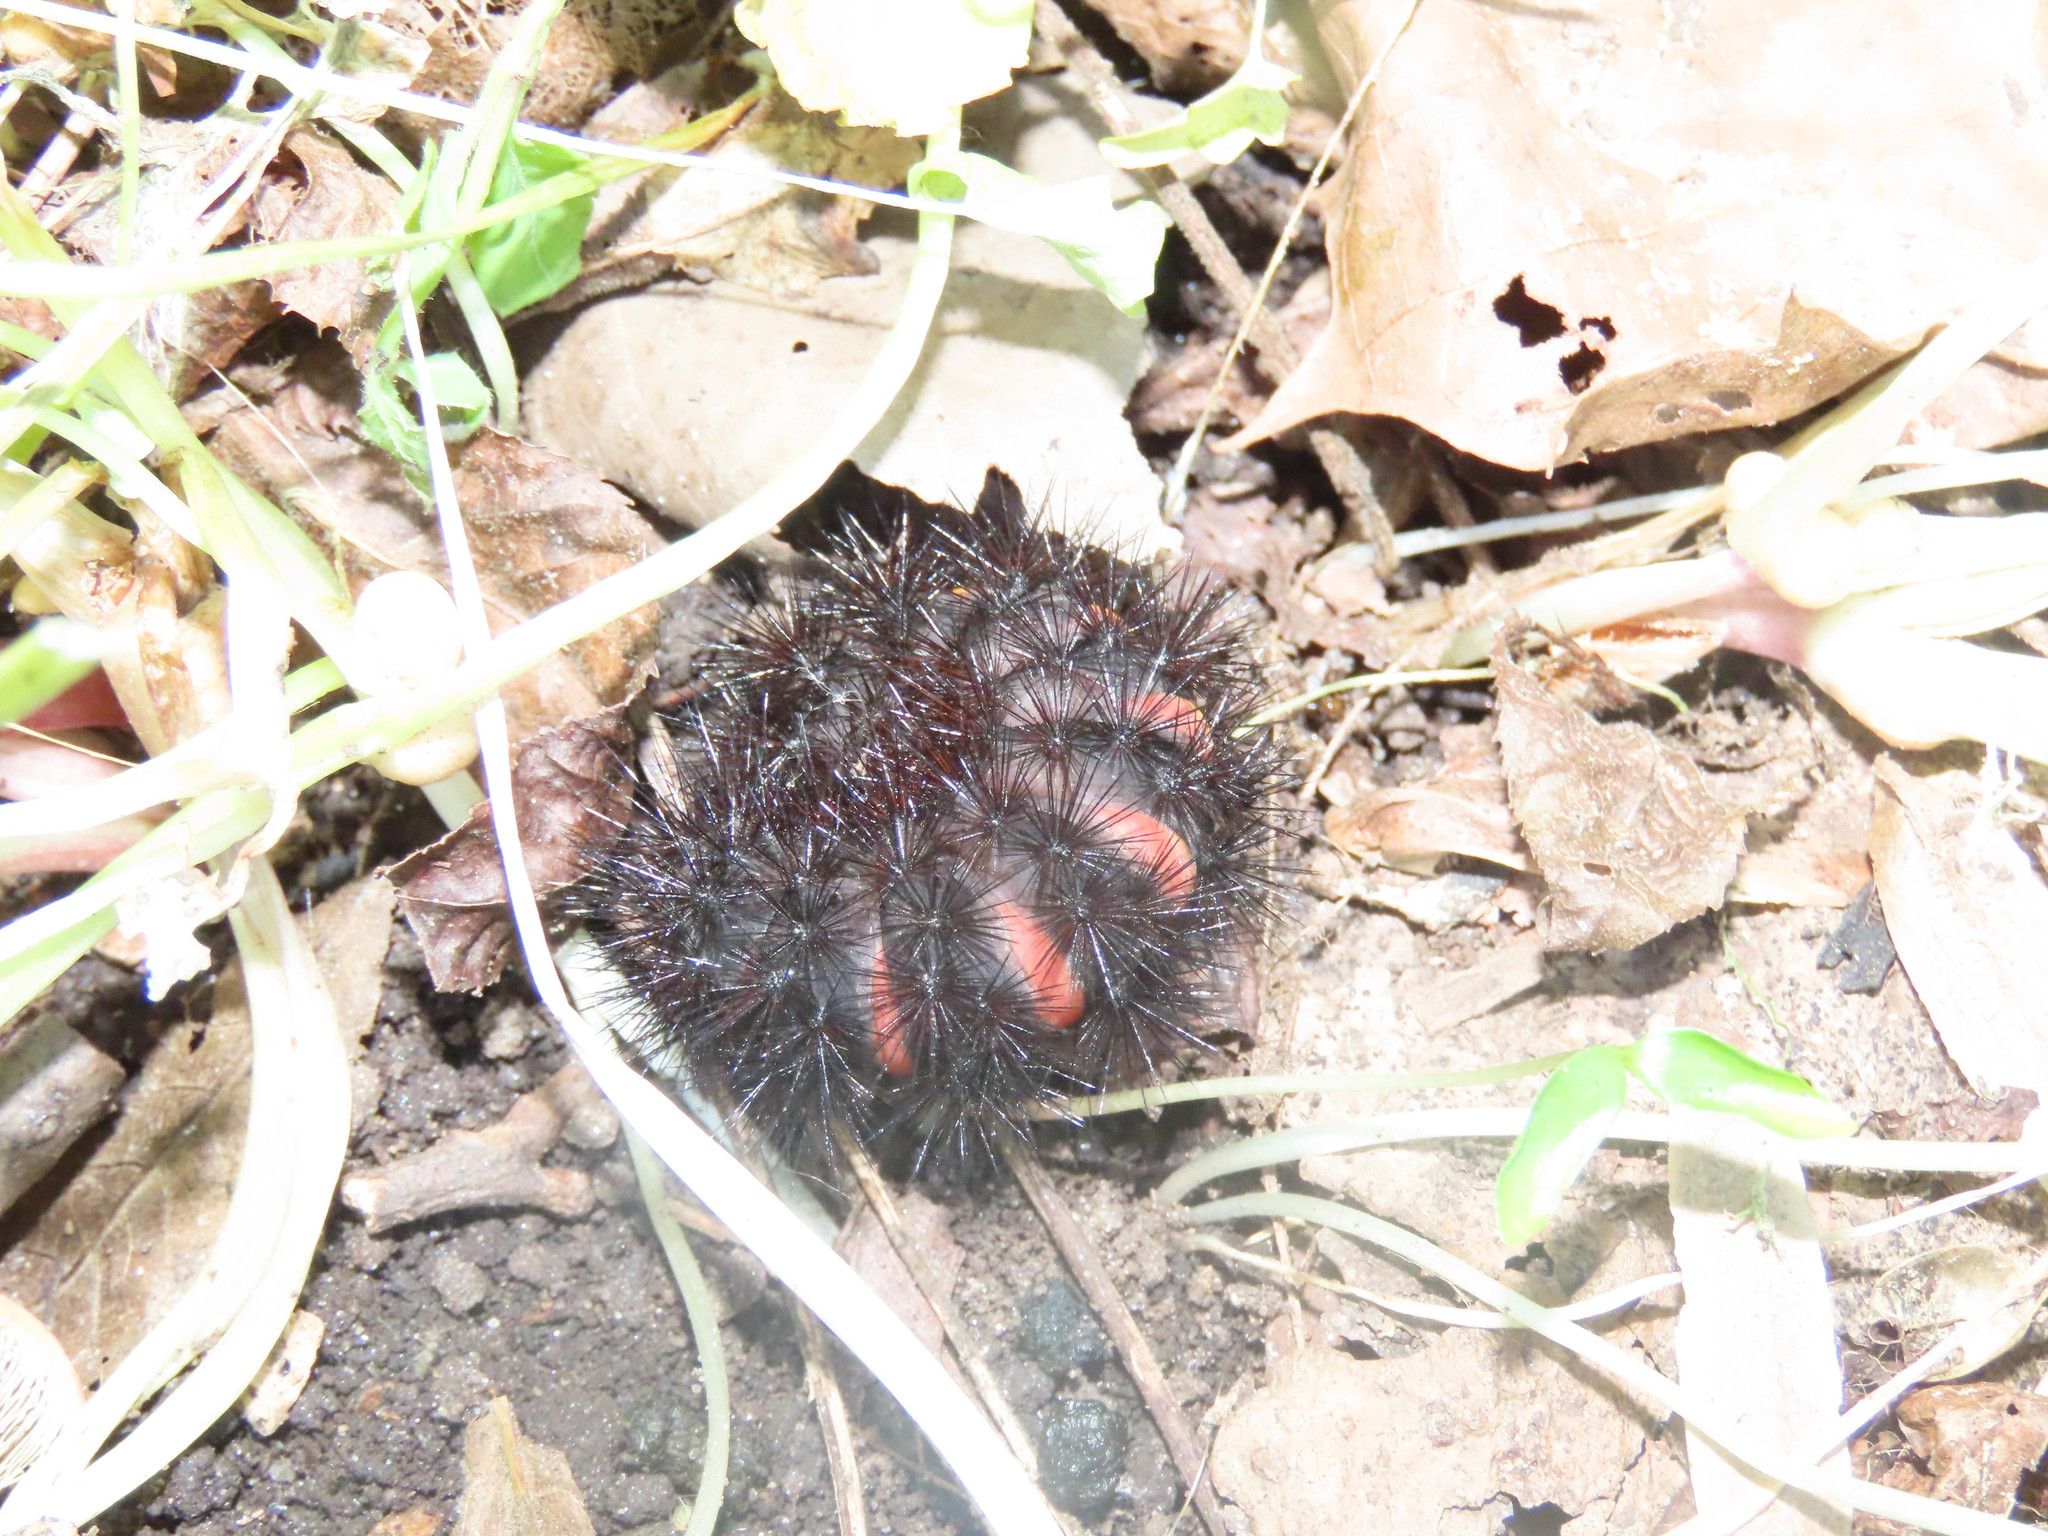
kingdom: Animalia
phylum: Arthropoda
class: Insecta
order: Lepidoptera
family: Erebidae
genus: Hypercompe
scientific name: Hypercompe scribonia
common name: Giant leopard moth
